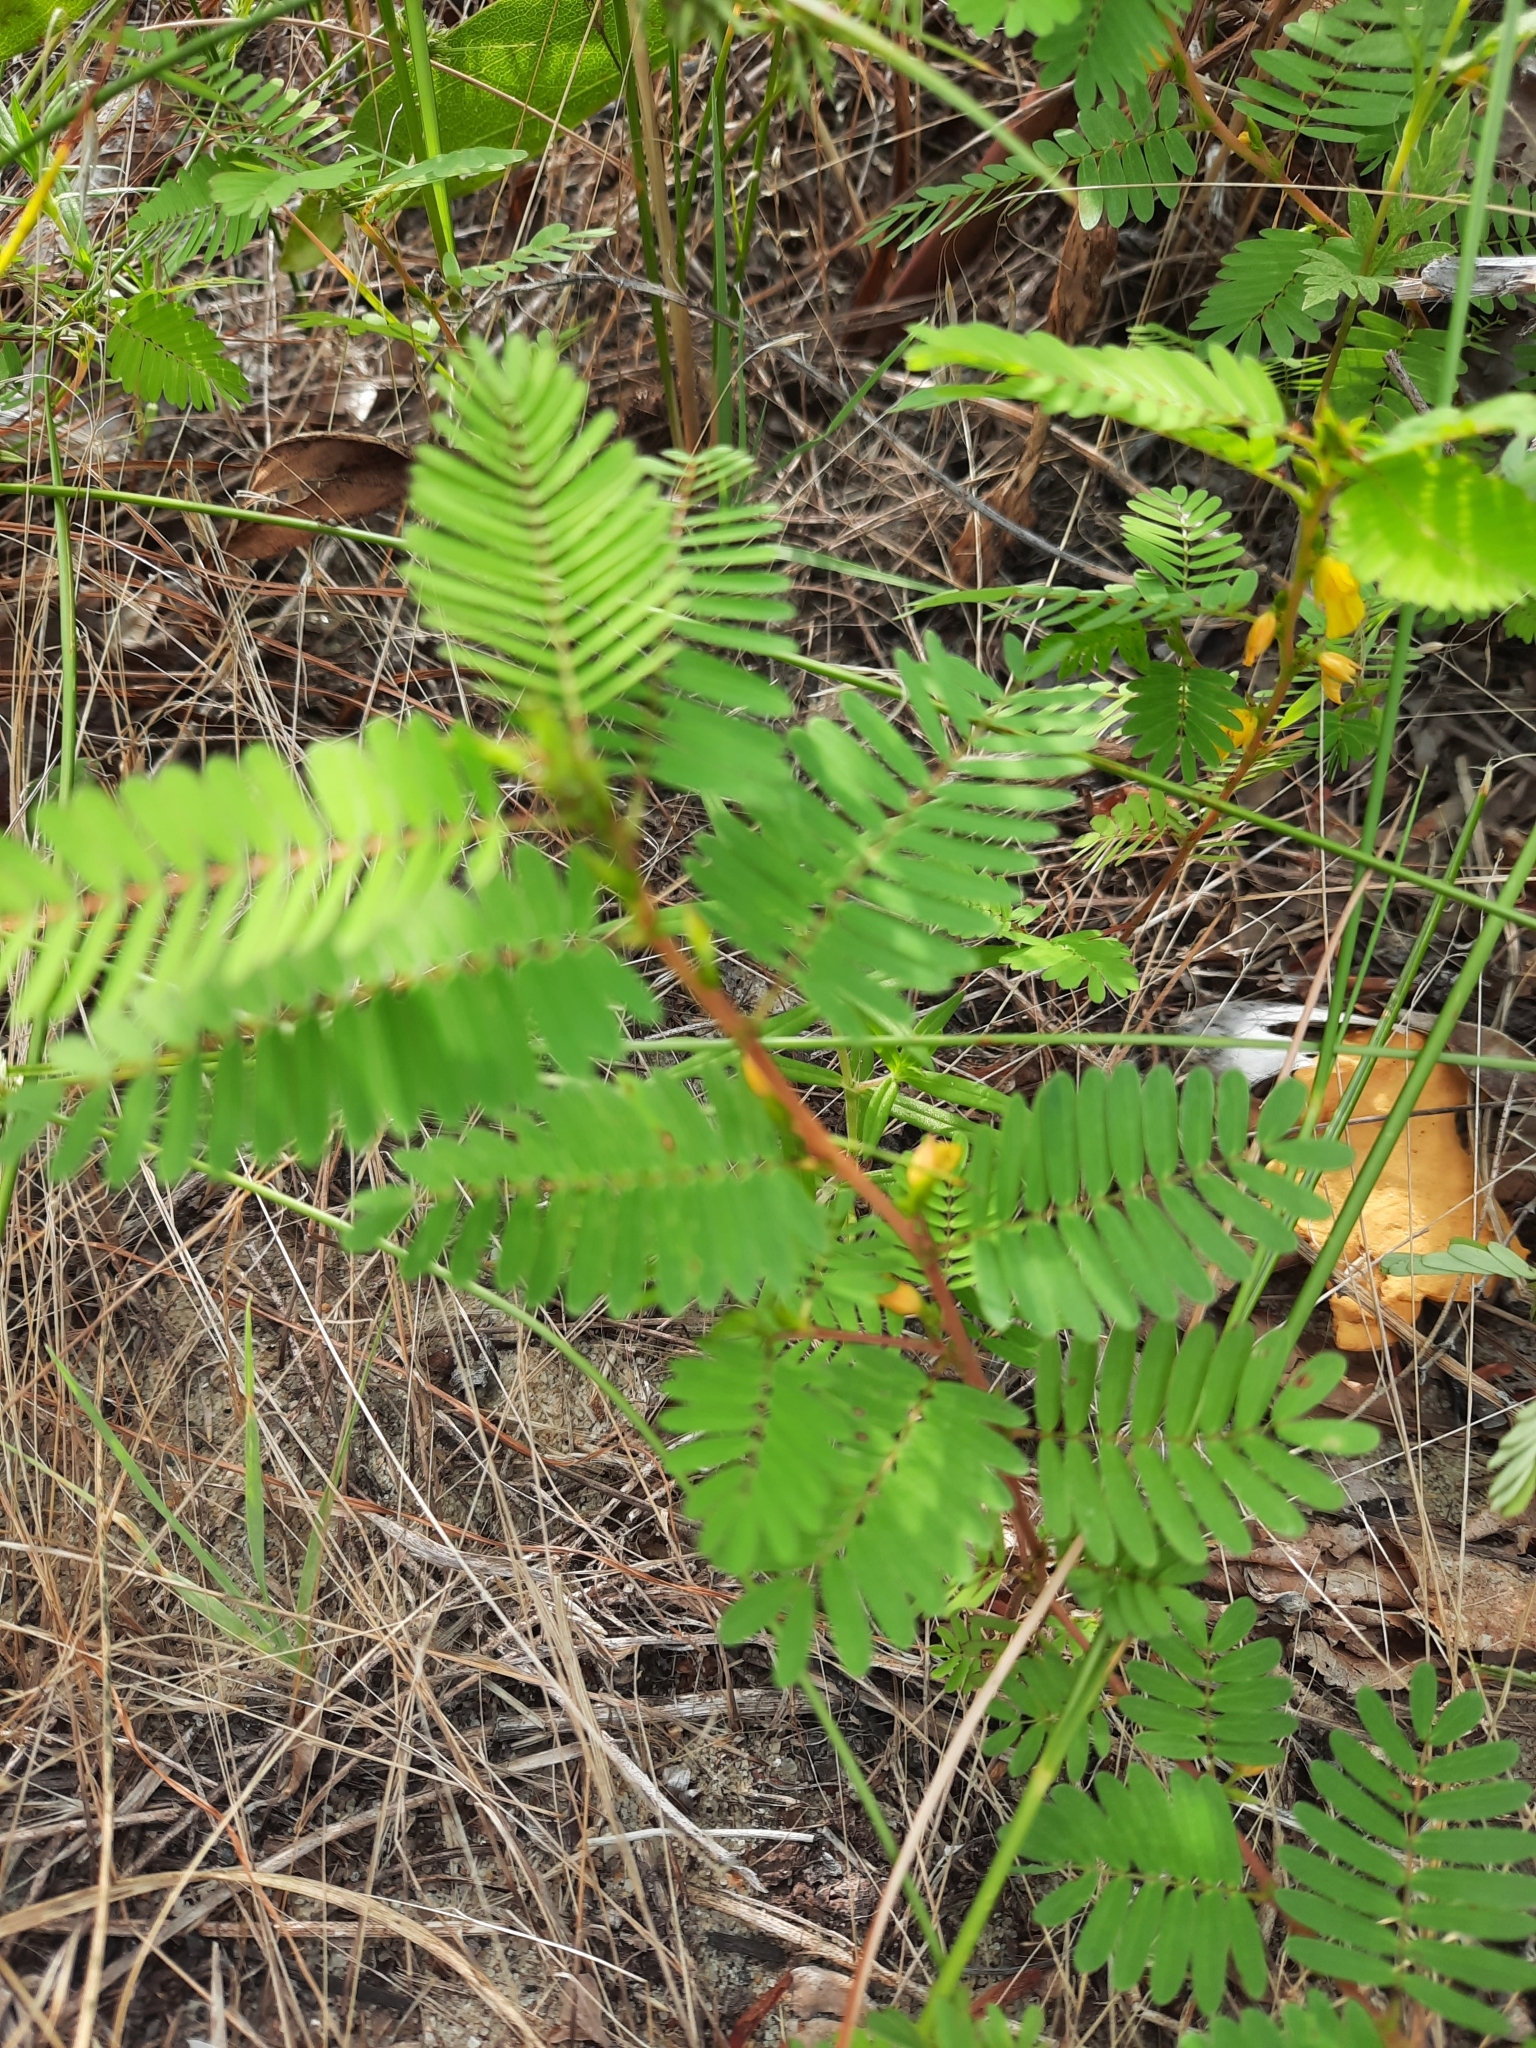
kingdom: Plantae
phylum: Tracheophyta
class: Magnoliopsida
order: Fabales
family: Fabaceae
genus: Chamaecrista
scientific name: Chamaecrista nictitans
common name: Sensitive cassia
